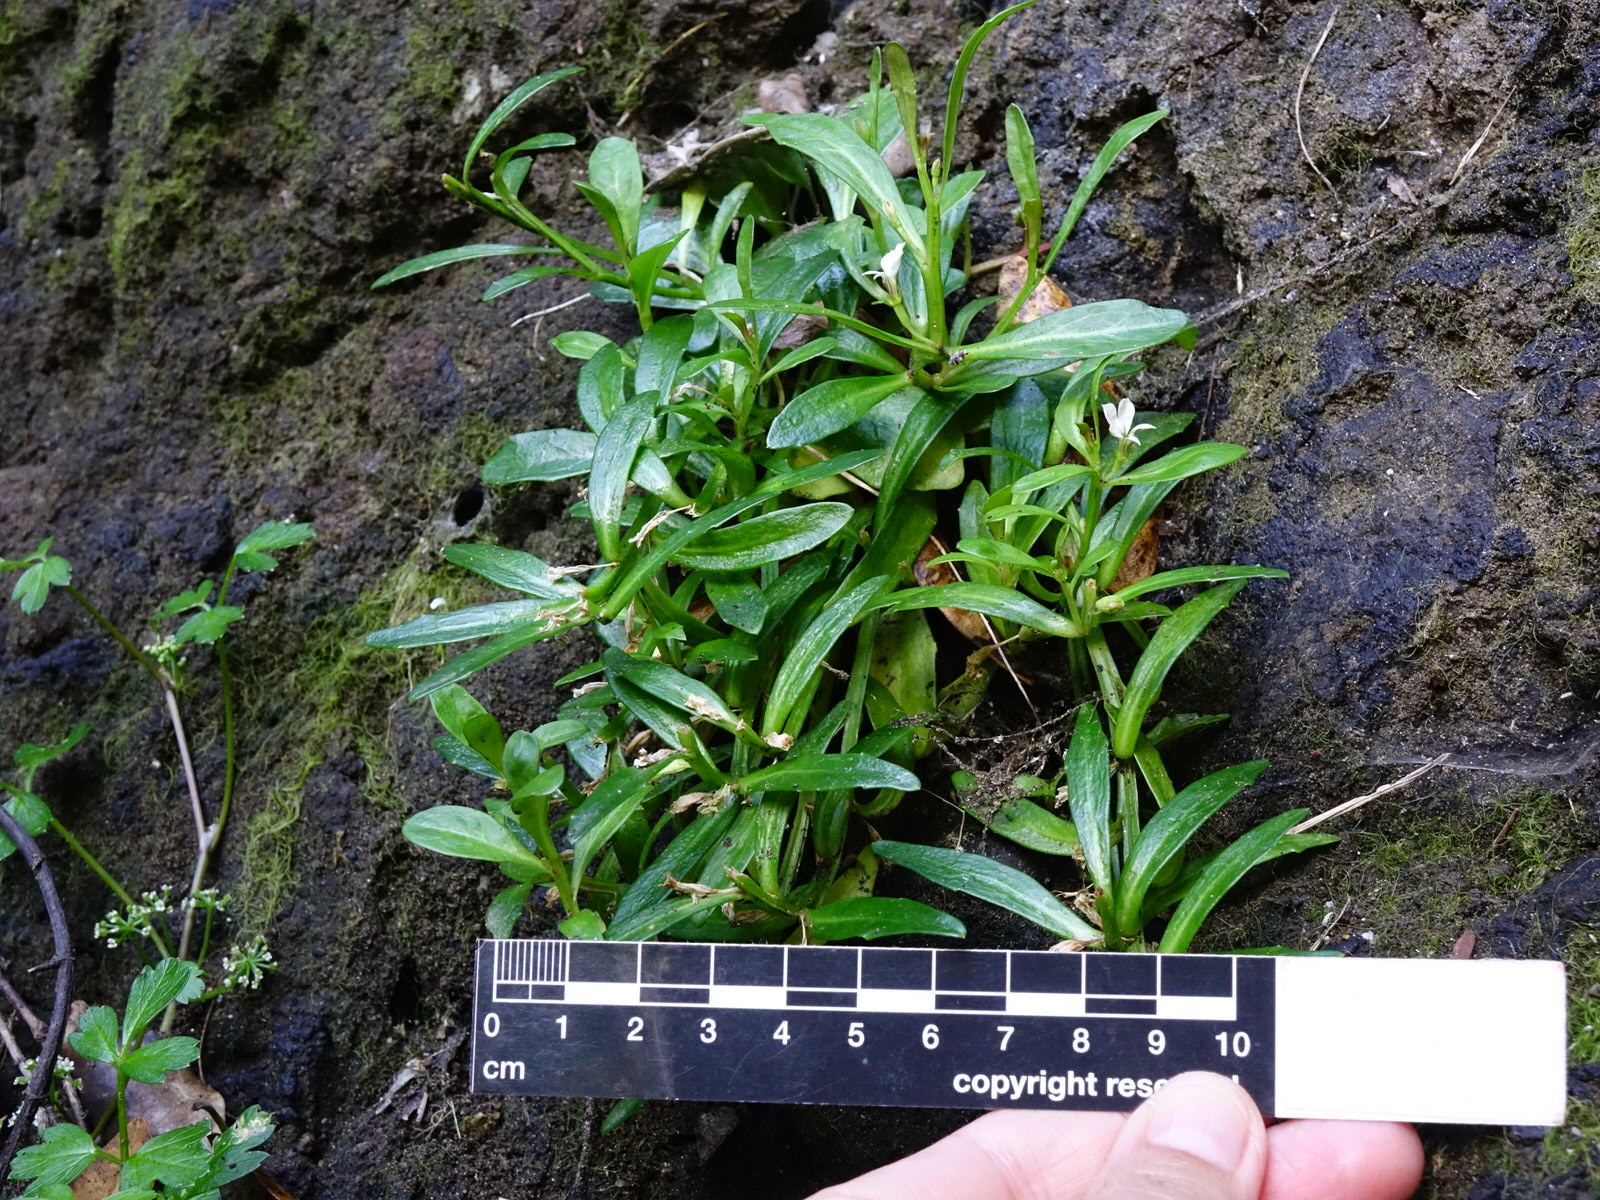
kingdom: Plantae
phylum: Tracheophyta
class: Magnoliopsida
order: Asterales
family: Campanulaceae
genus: Lobelia
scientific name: Lobelia anceps
